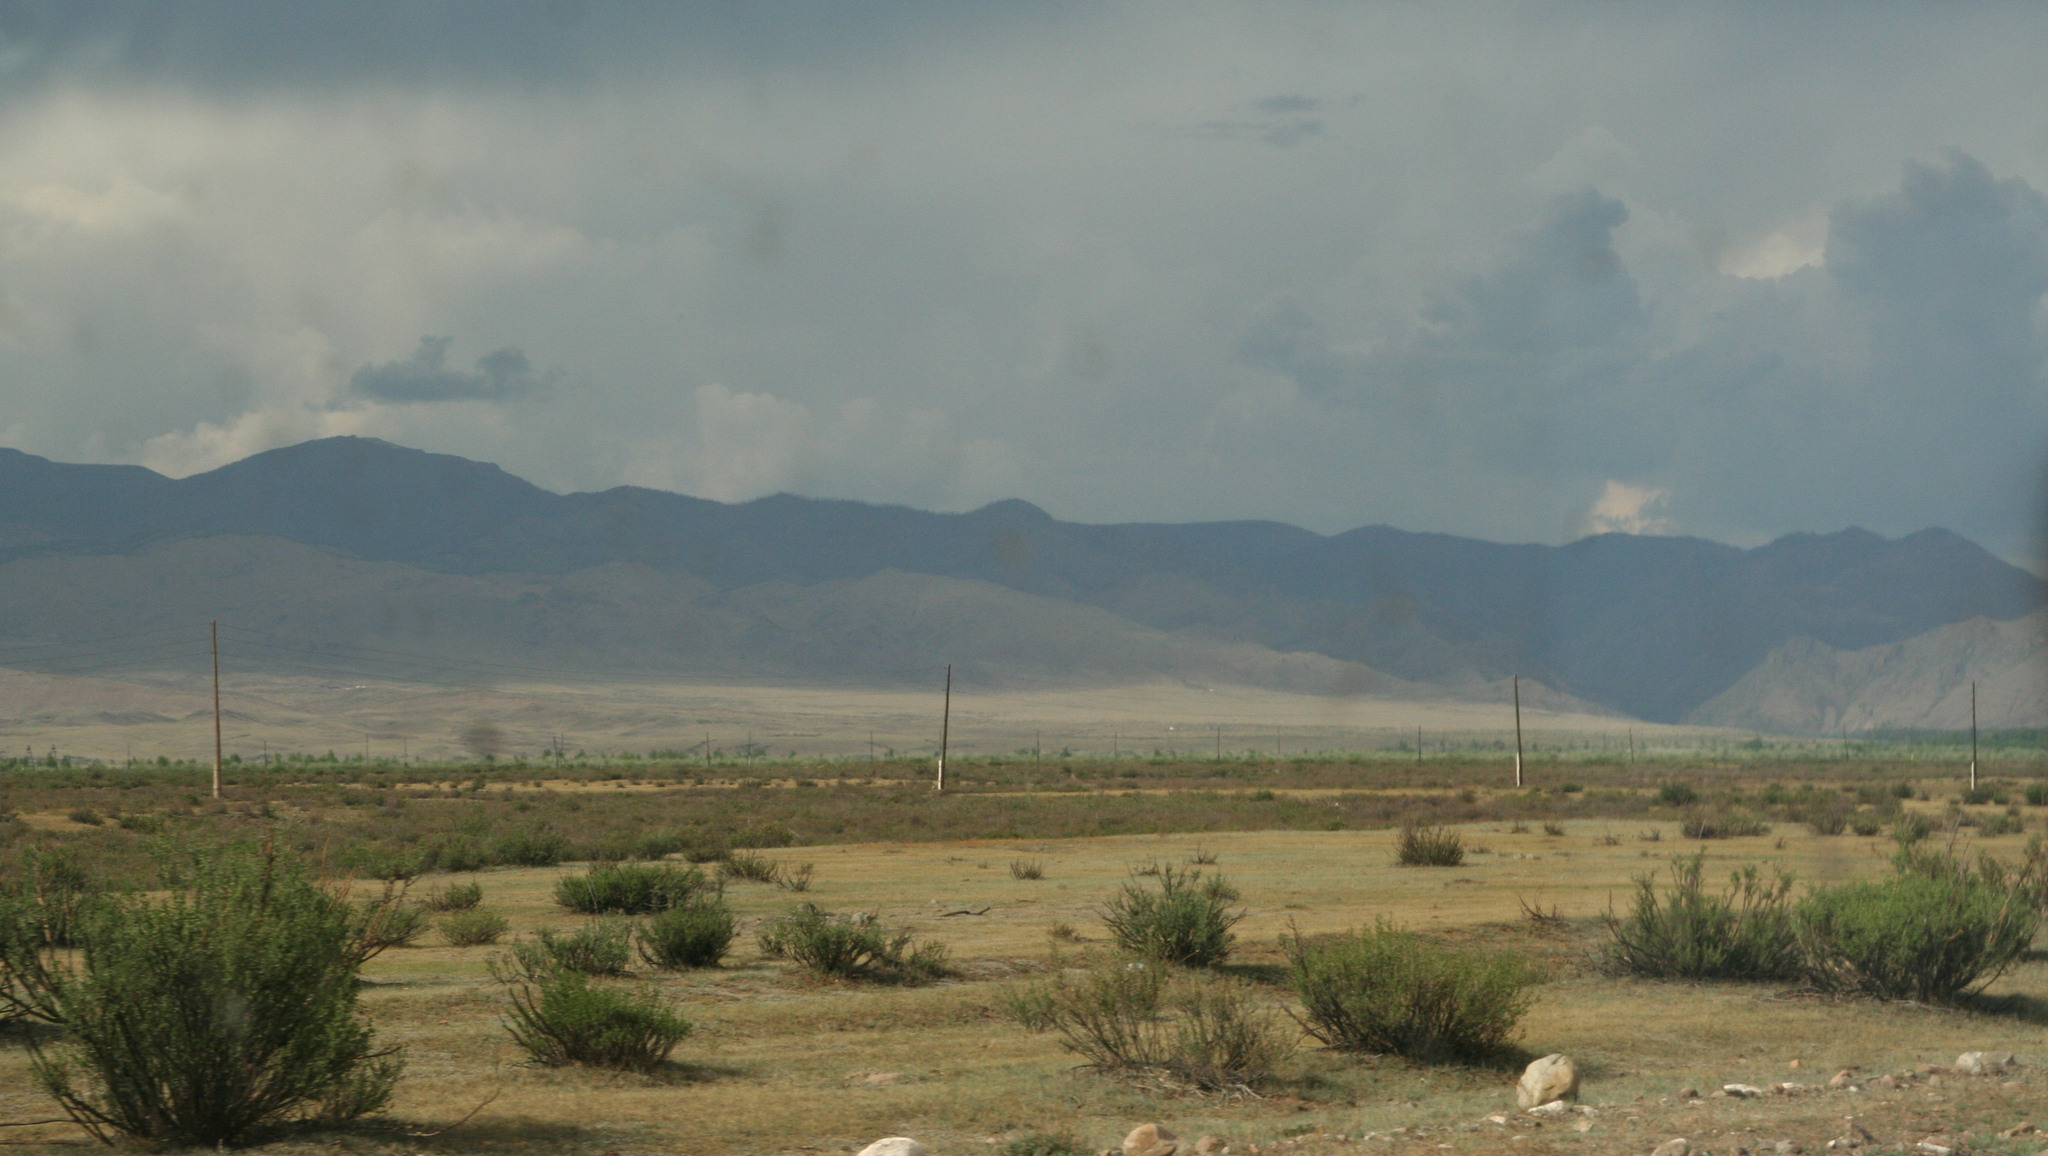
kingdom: Plantae
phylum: Tracheophyta
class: Magnoliopsida
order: Fabales
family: Fabaceae
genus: Caragana
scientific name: Caragana bungei
